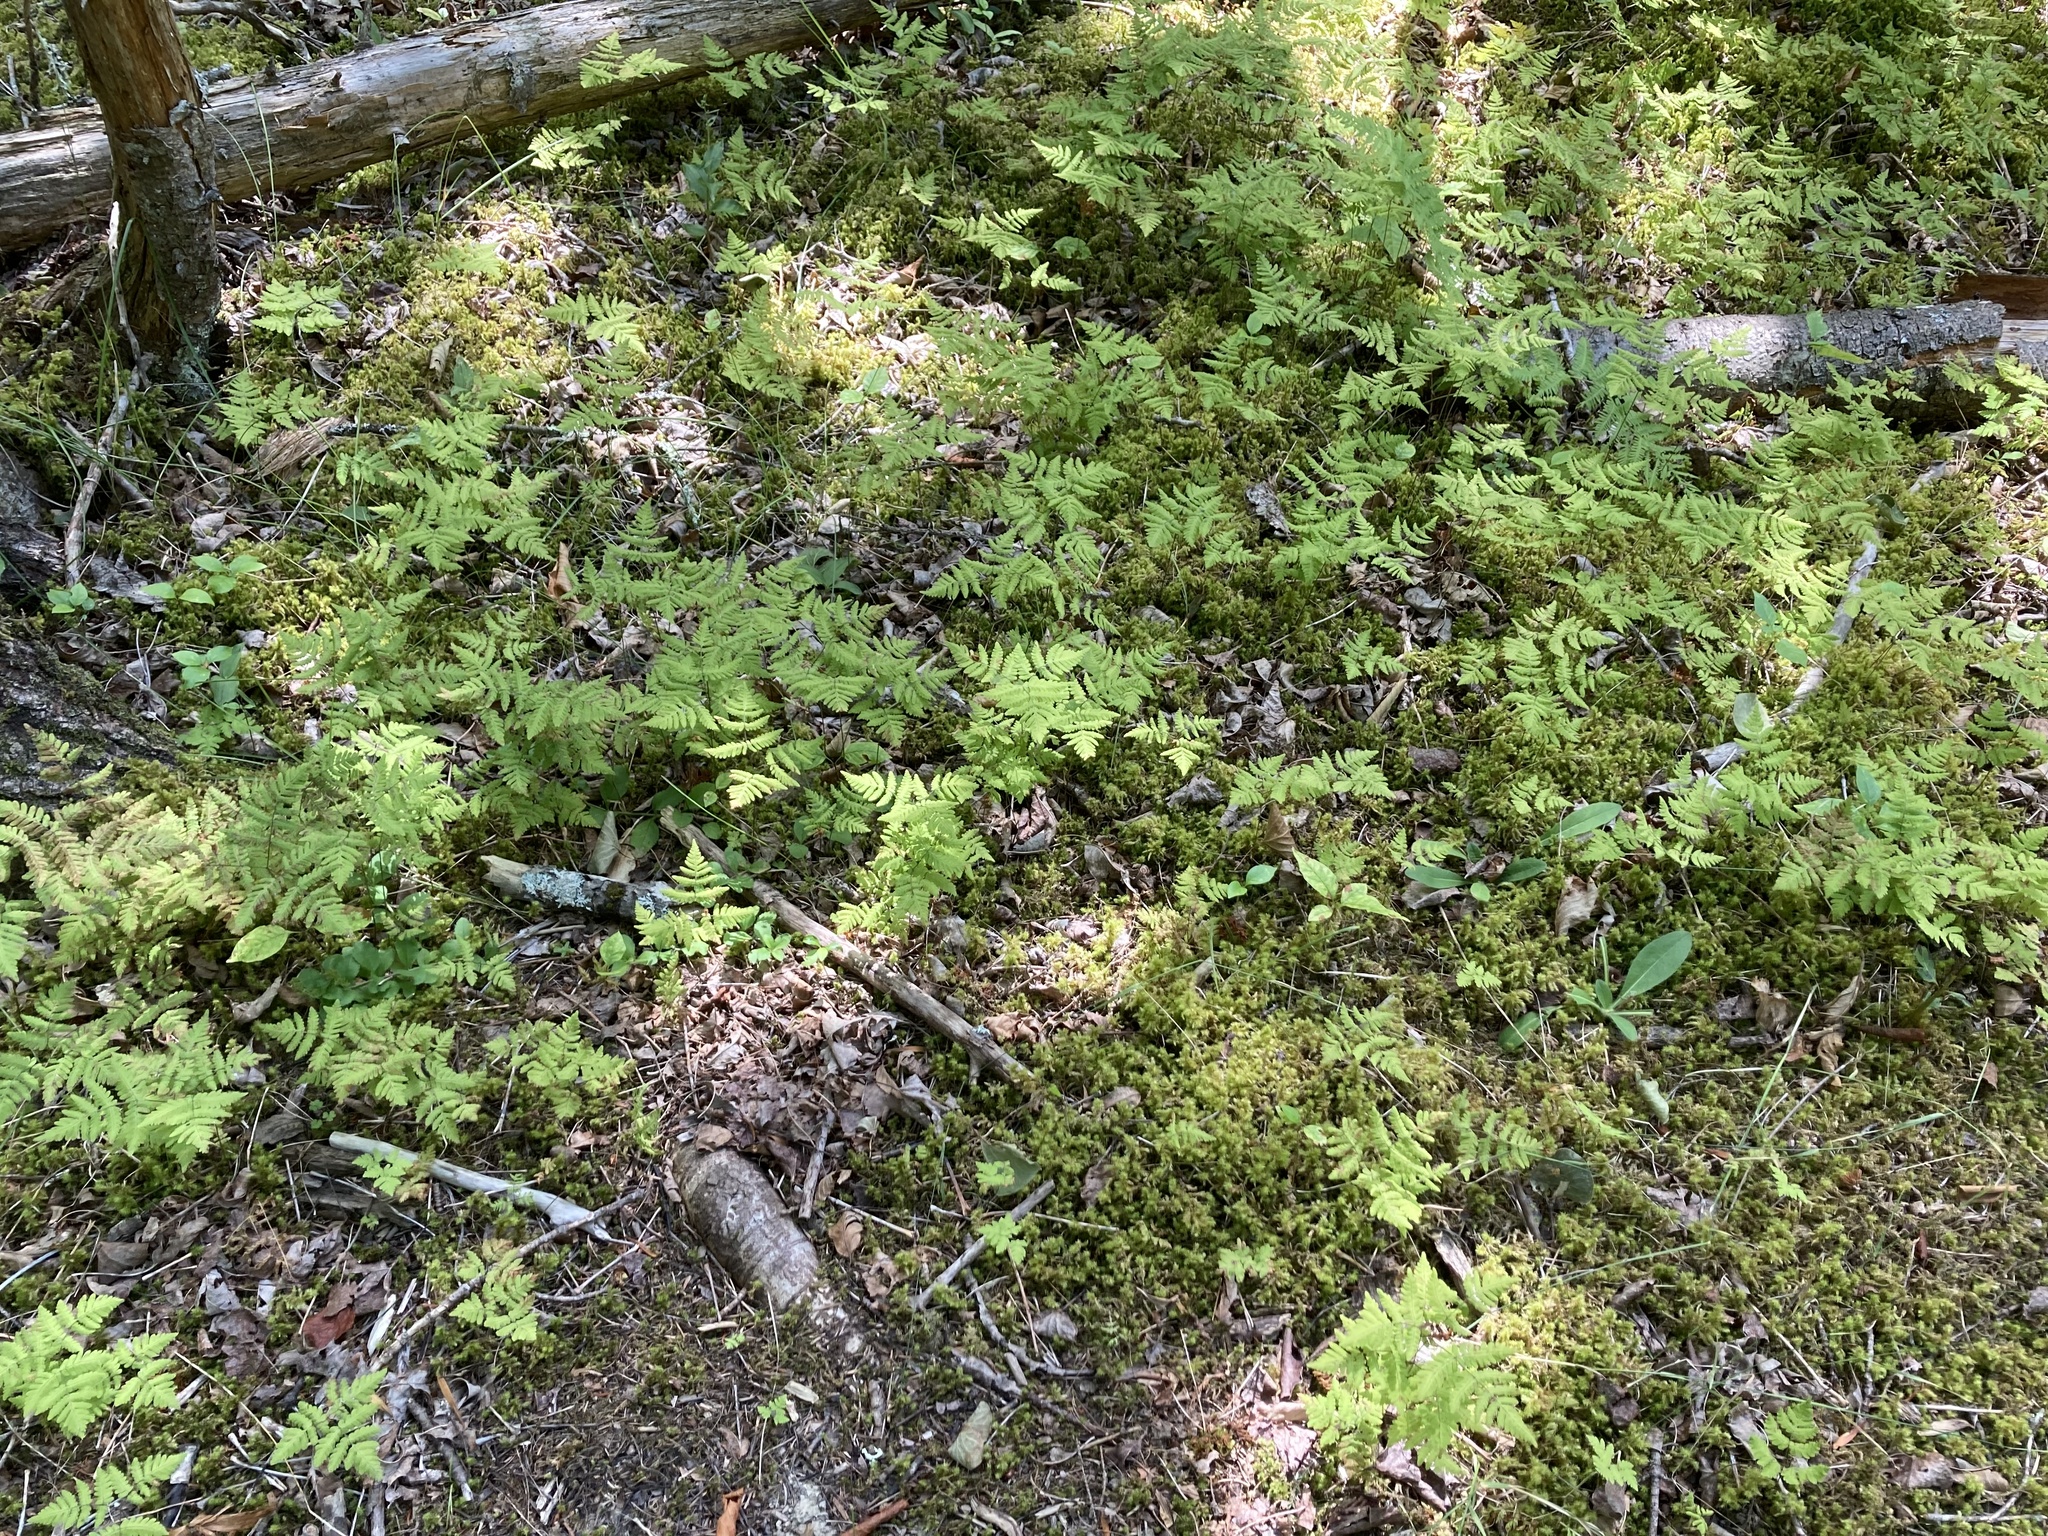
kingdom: Plantae
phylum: Tracheophyta
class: Polypodiopsida
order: Polypodiales
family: Cystopteridaceae
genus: Gymnocarpium
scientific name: Gymnocarpium dryopteris
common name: Oak fern
